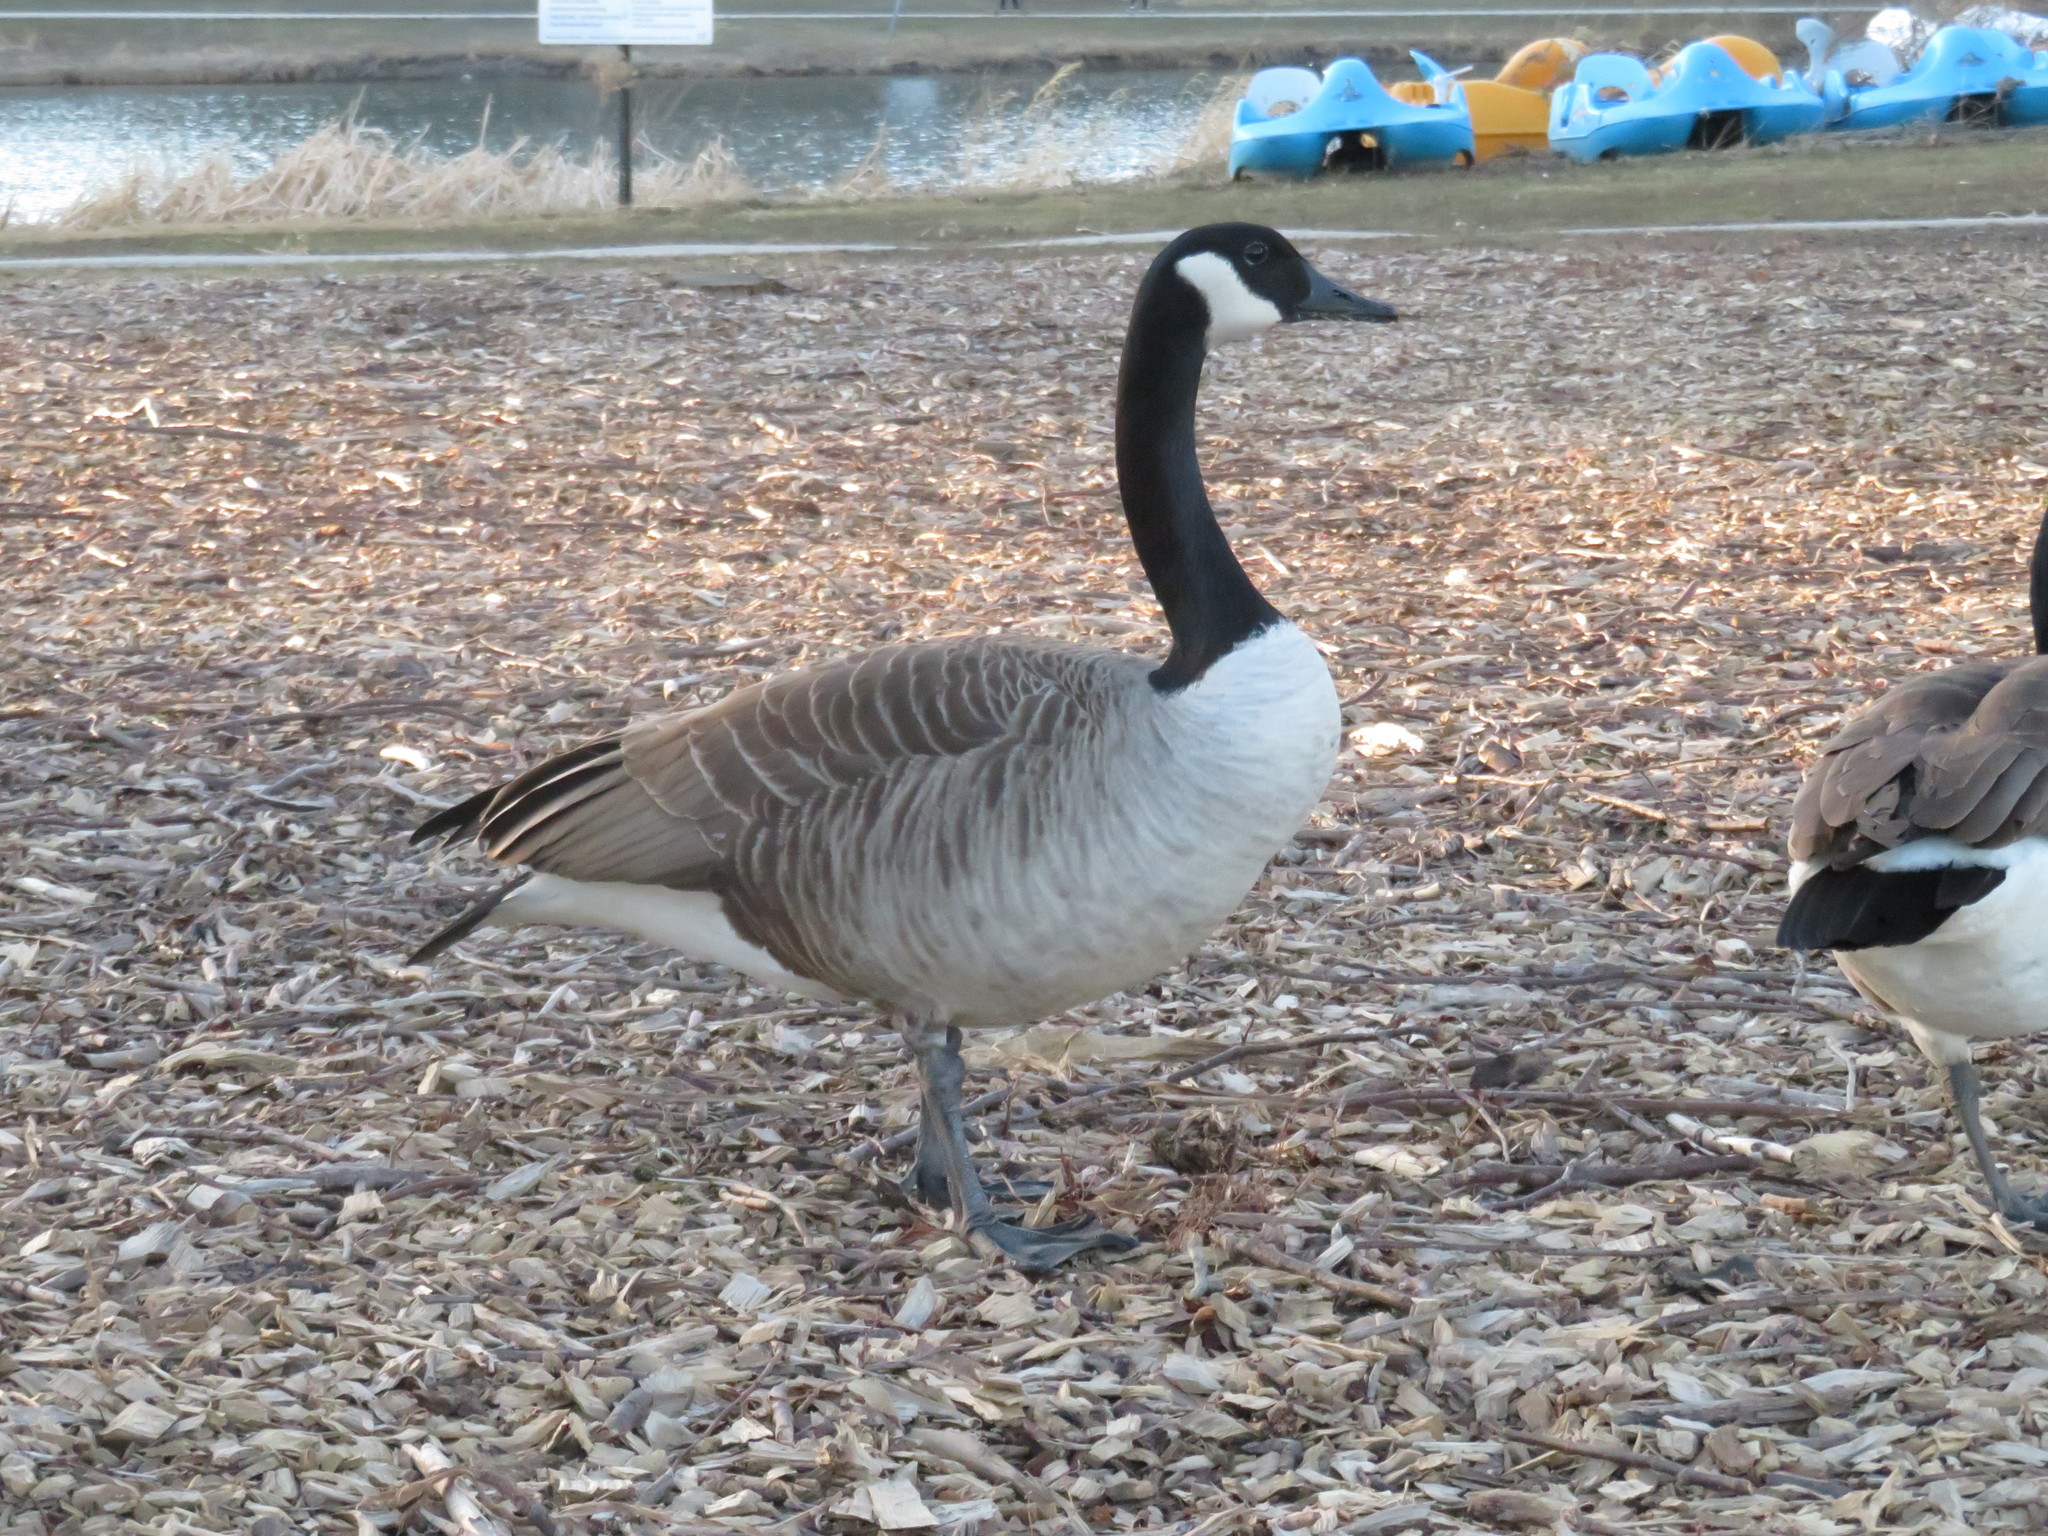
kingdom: Animalia
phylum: Chordata
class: Aves
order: Anseriformes
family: Anatidae
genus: Branta
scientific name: Branta canadensis
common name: Canada goose
